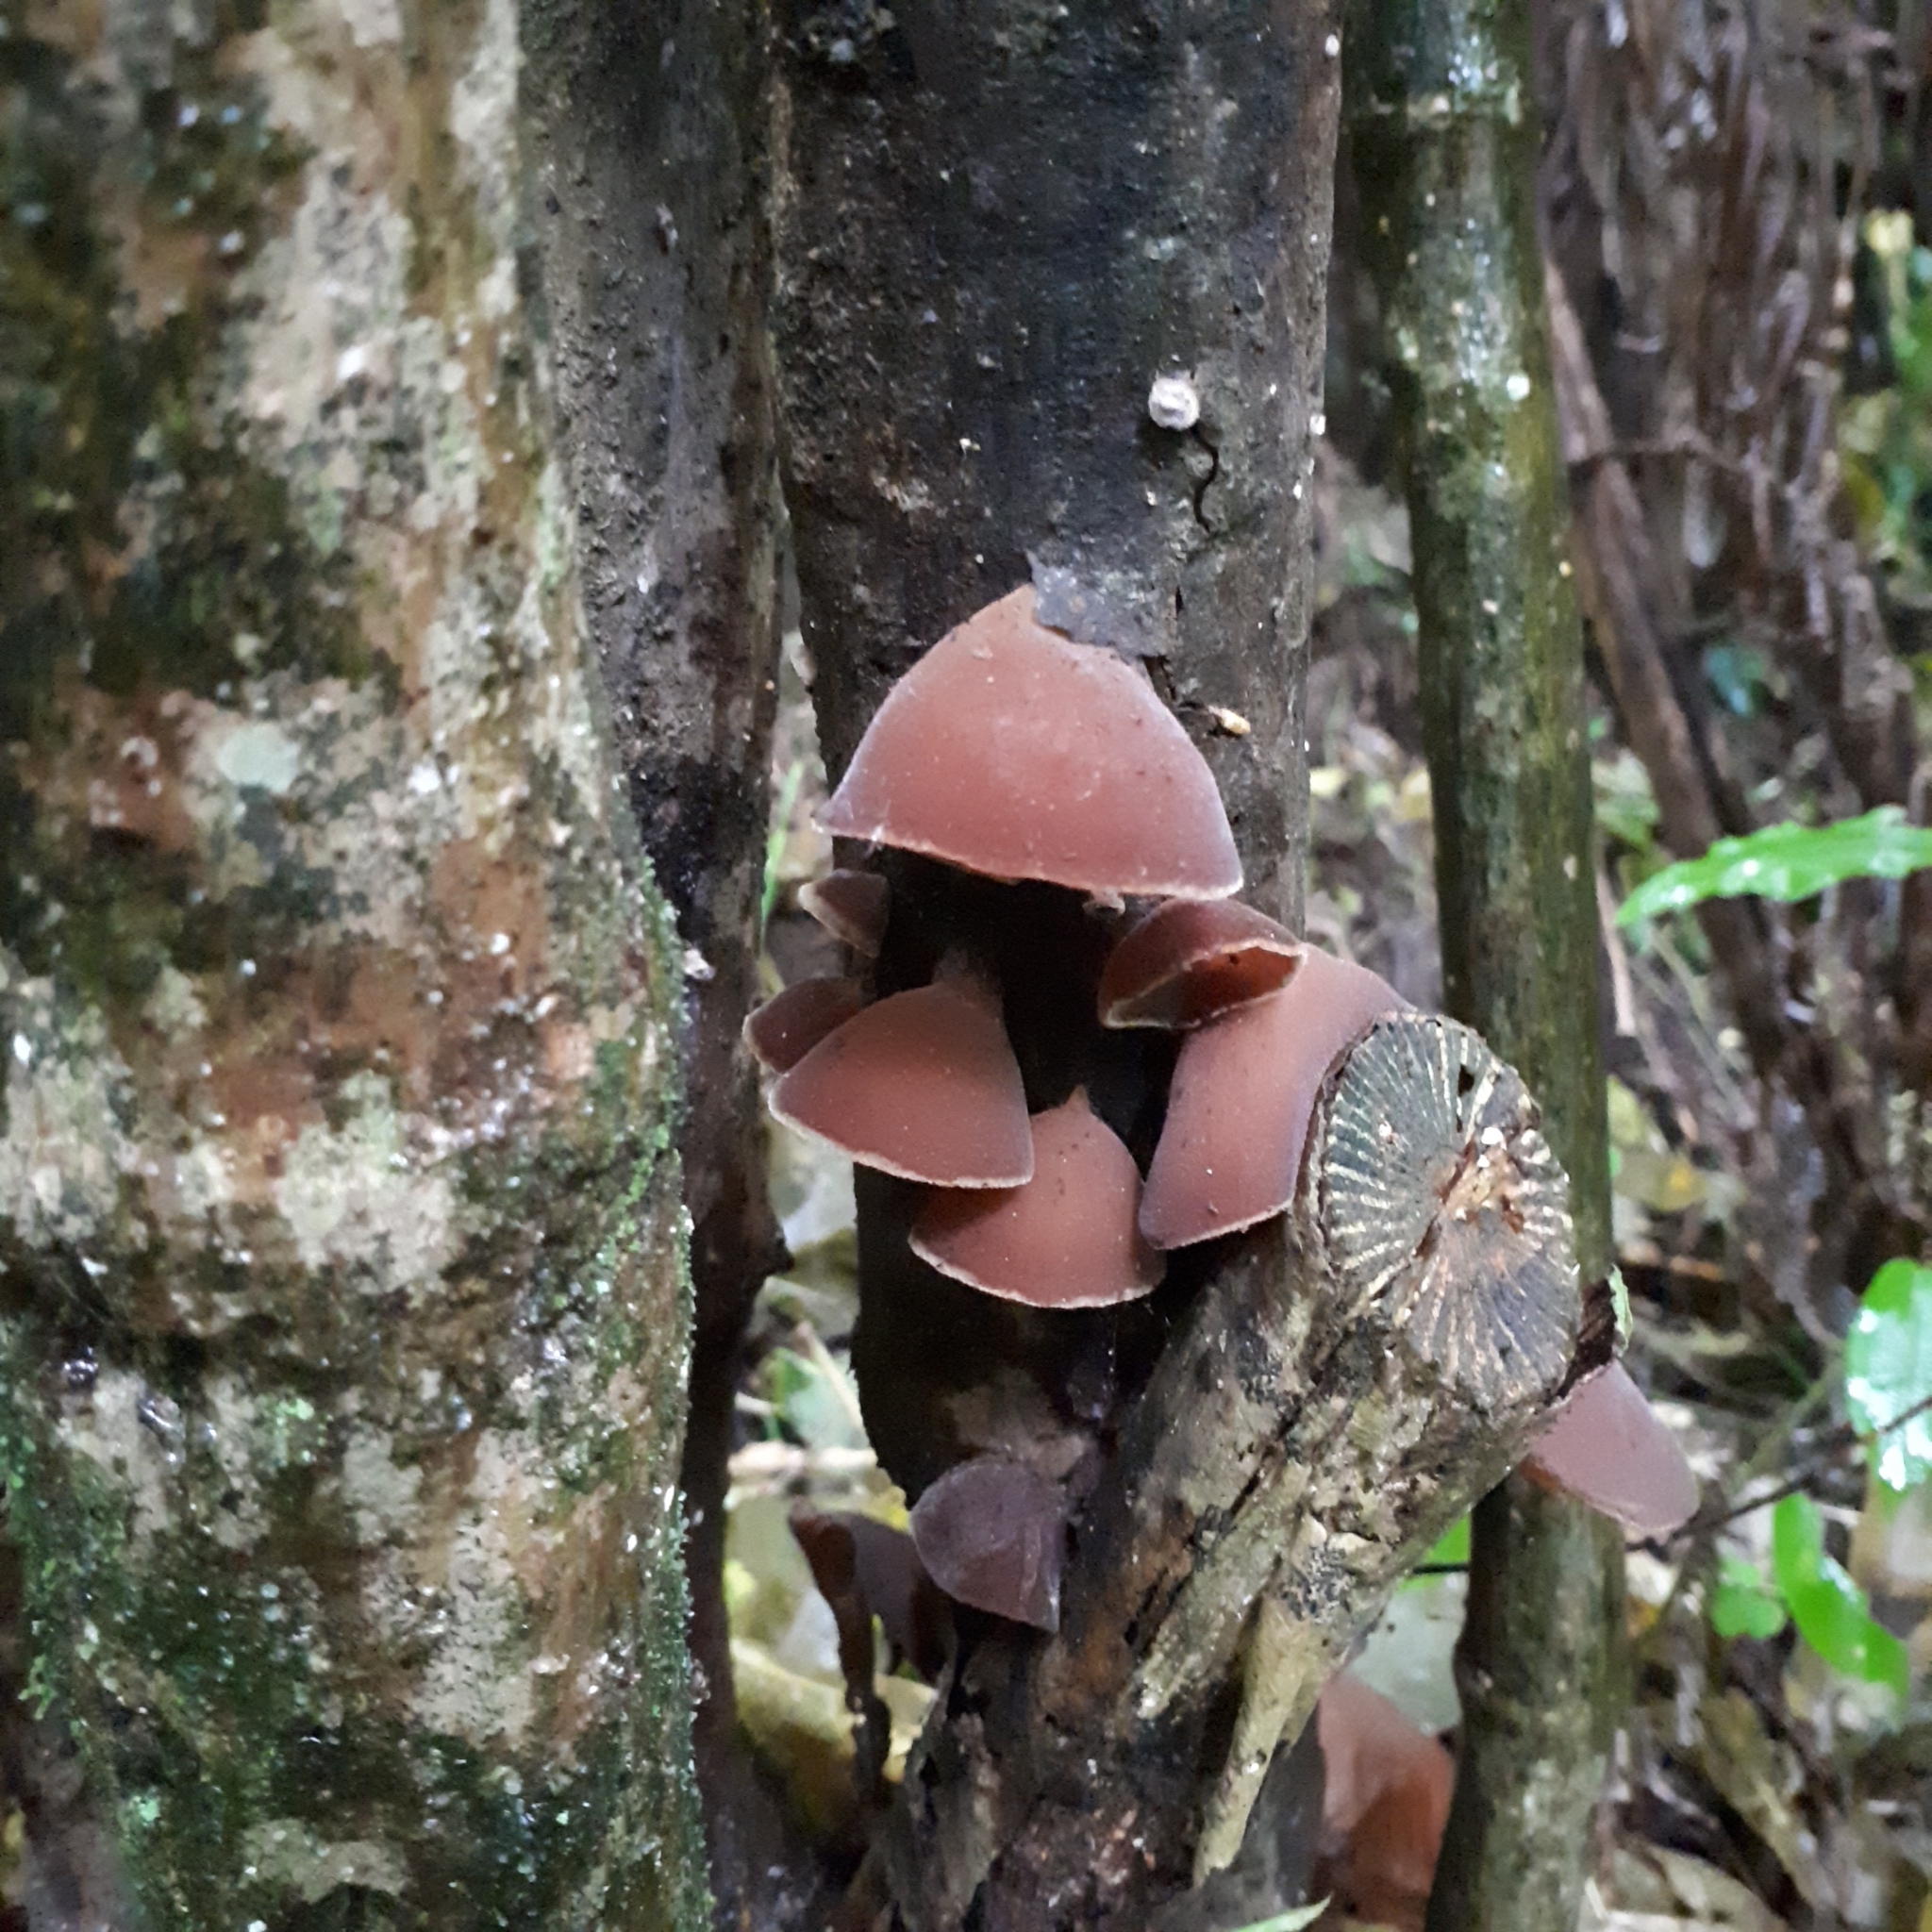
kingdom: Fungi
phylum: Basidiomycota
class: Agaricomycetes
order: Auriculariales
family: Auriculariaceae
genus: Auricularia
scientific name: Auricularia cornea
